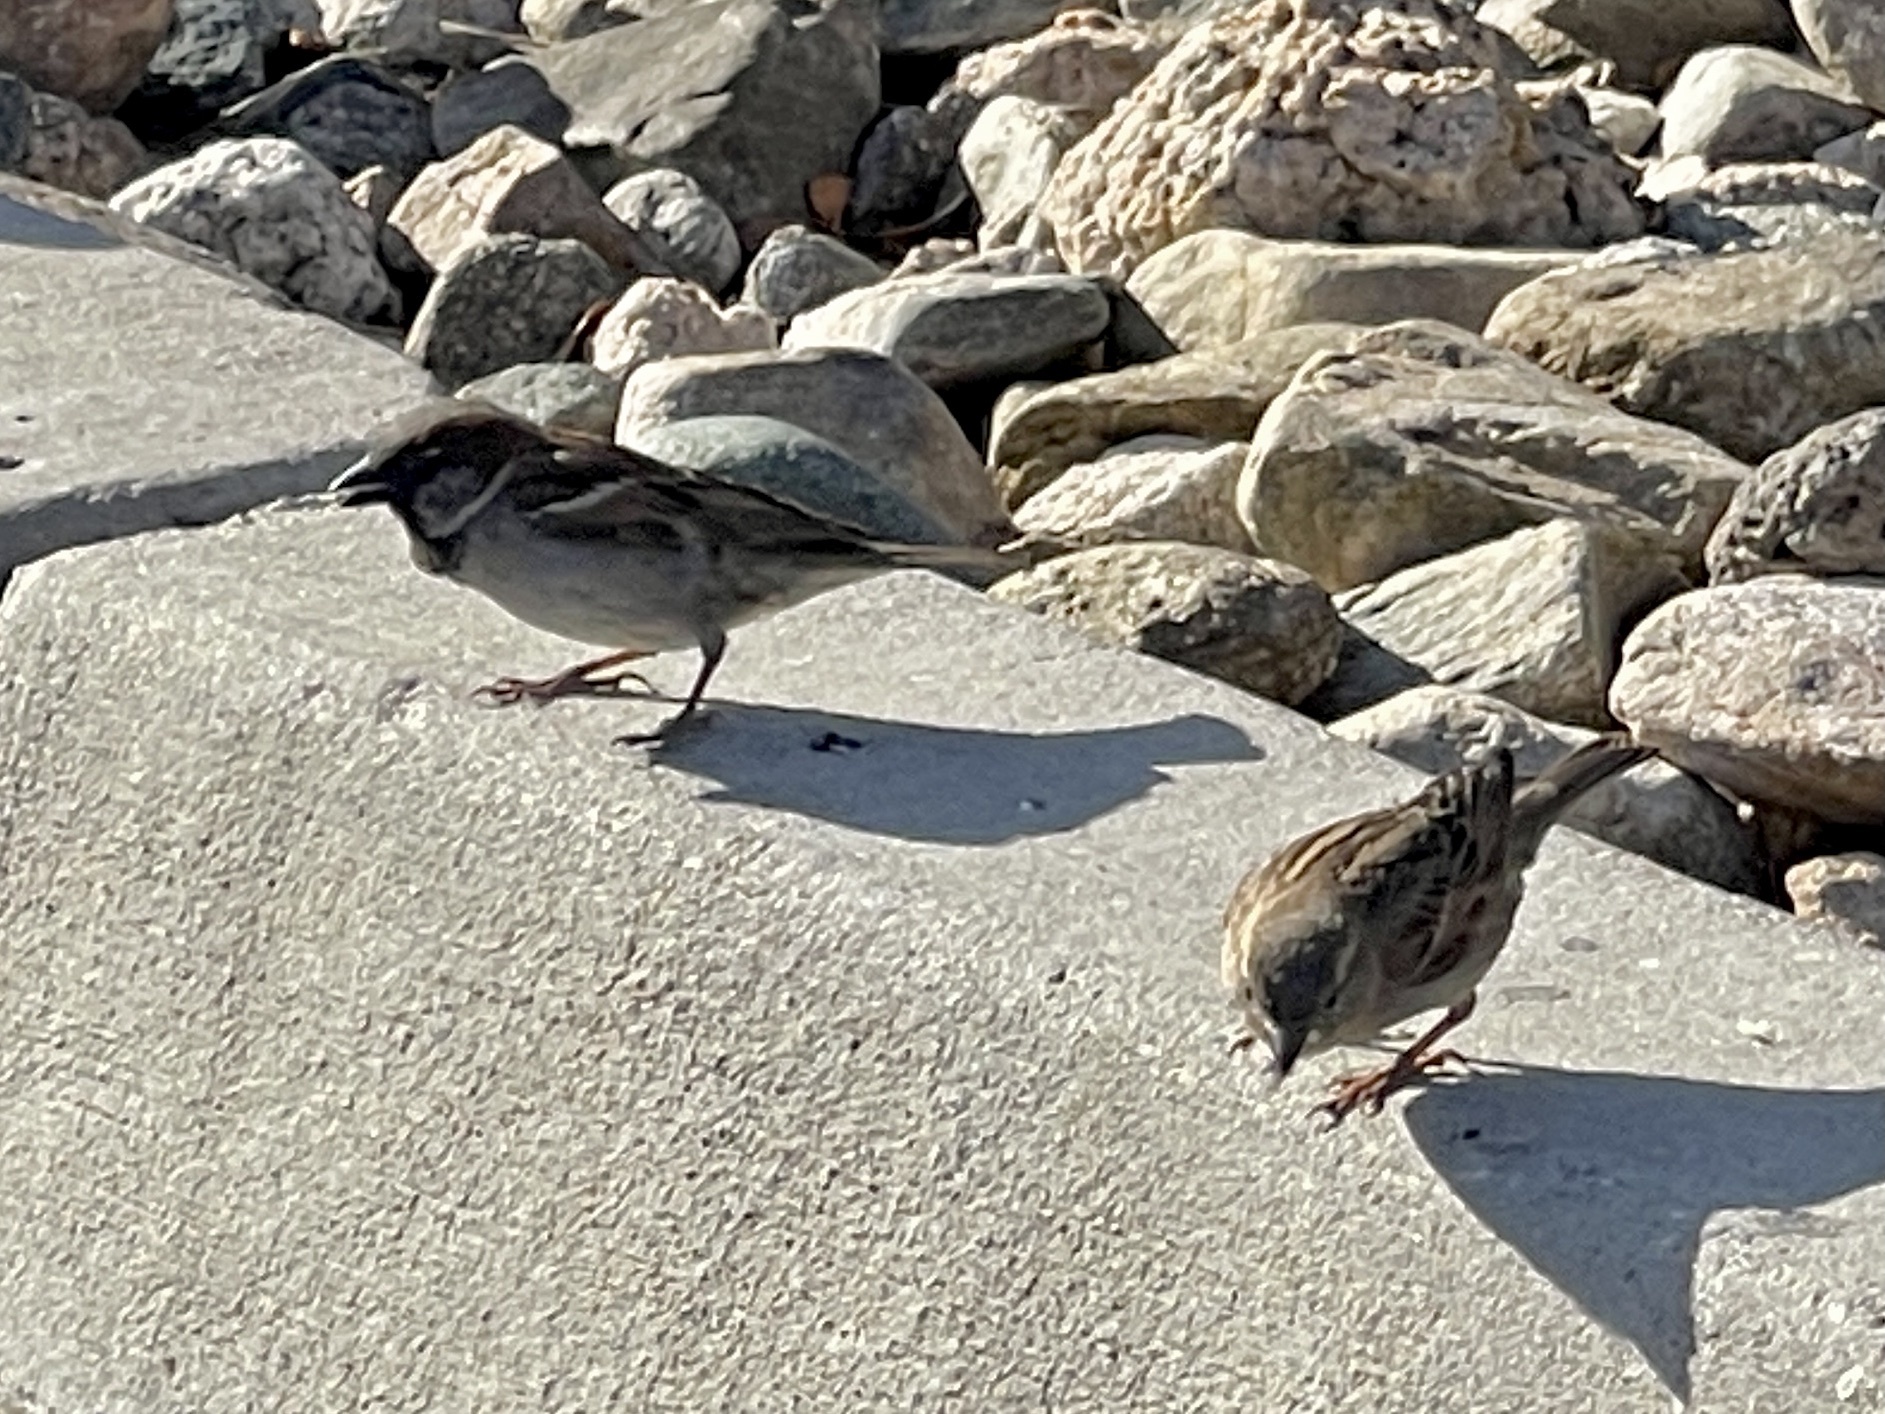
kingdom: Animalia
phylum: Chordata
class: Aves
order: Passeriformes
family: Passeridae
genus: Passer
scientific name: Passer domesticus
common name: House sparrow
